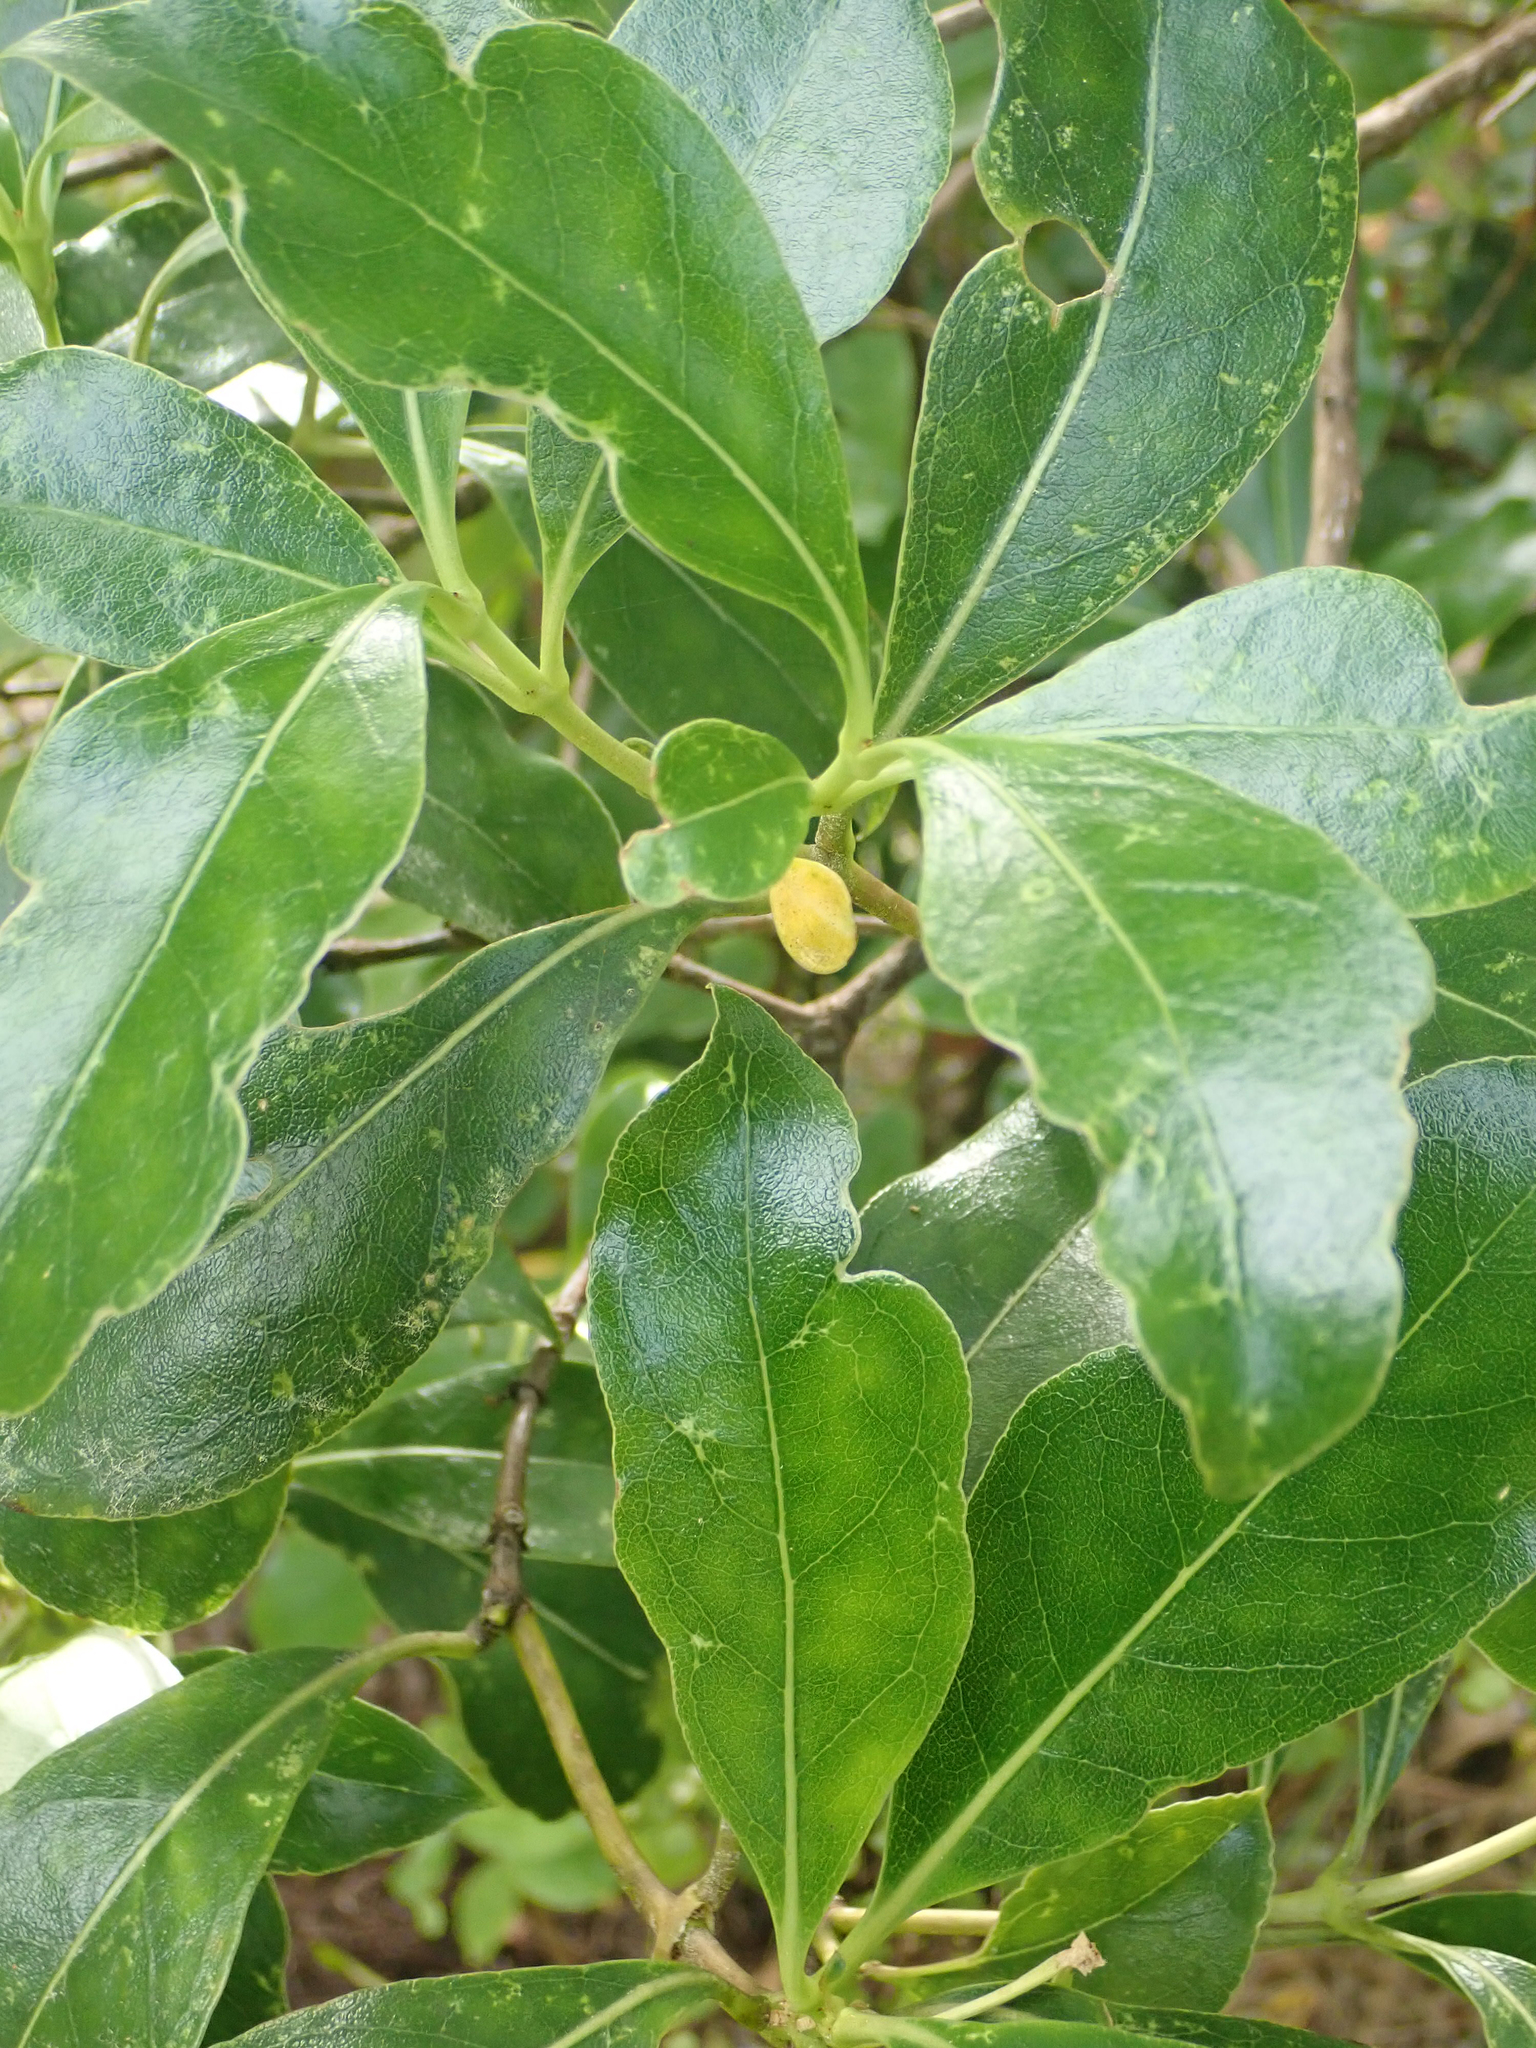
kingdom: Plantae
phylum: Tracheophyta
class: Magnoliopsida
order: Gentianales
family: Rubiaceae
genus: Coprosma
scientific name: Coprosma lucida
